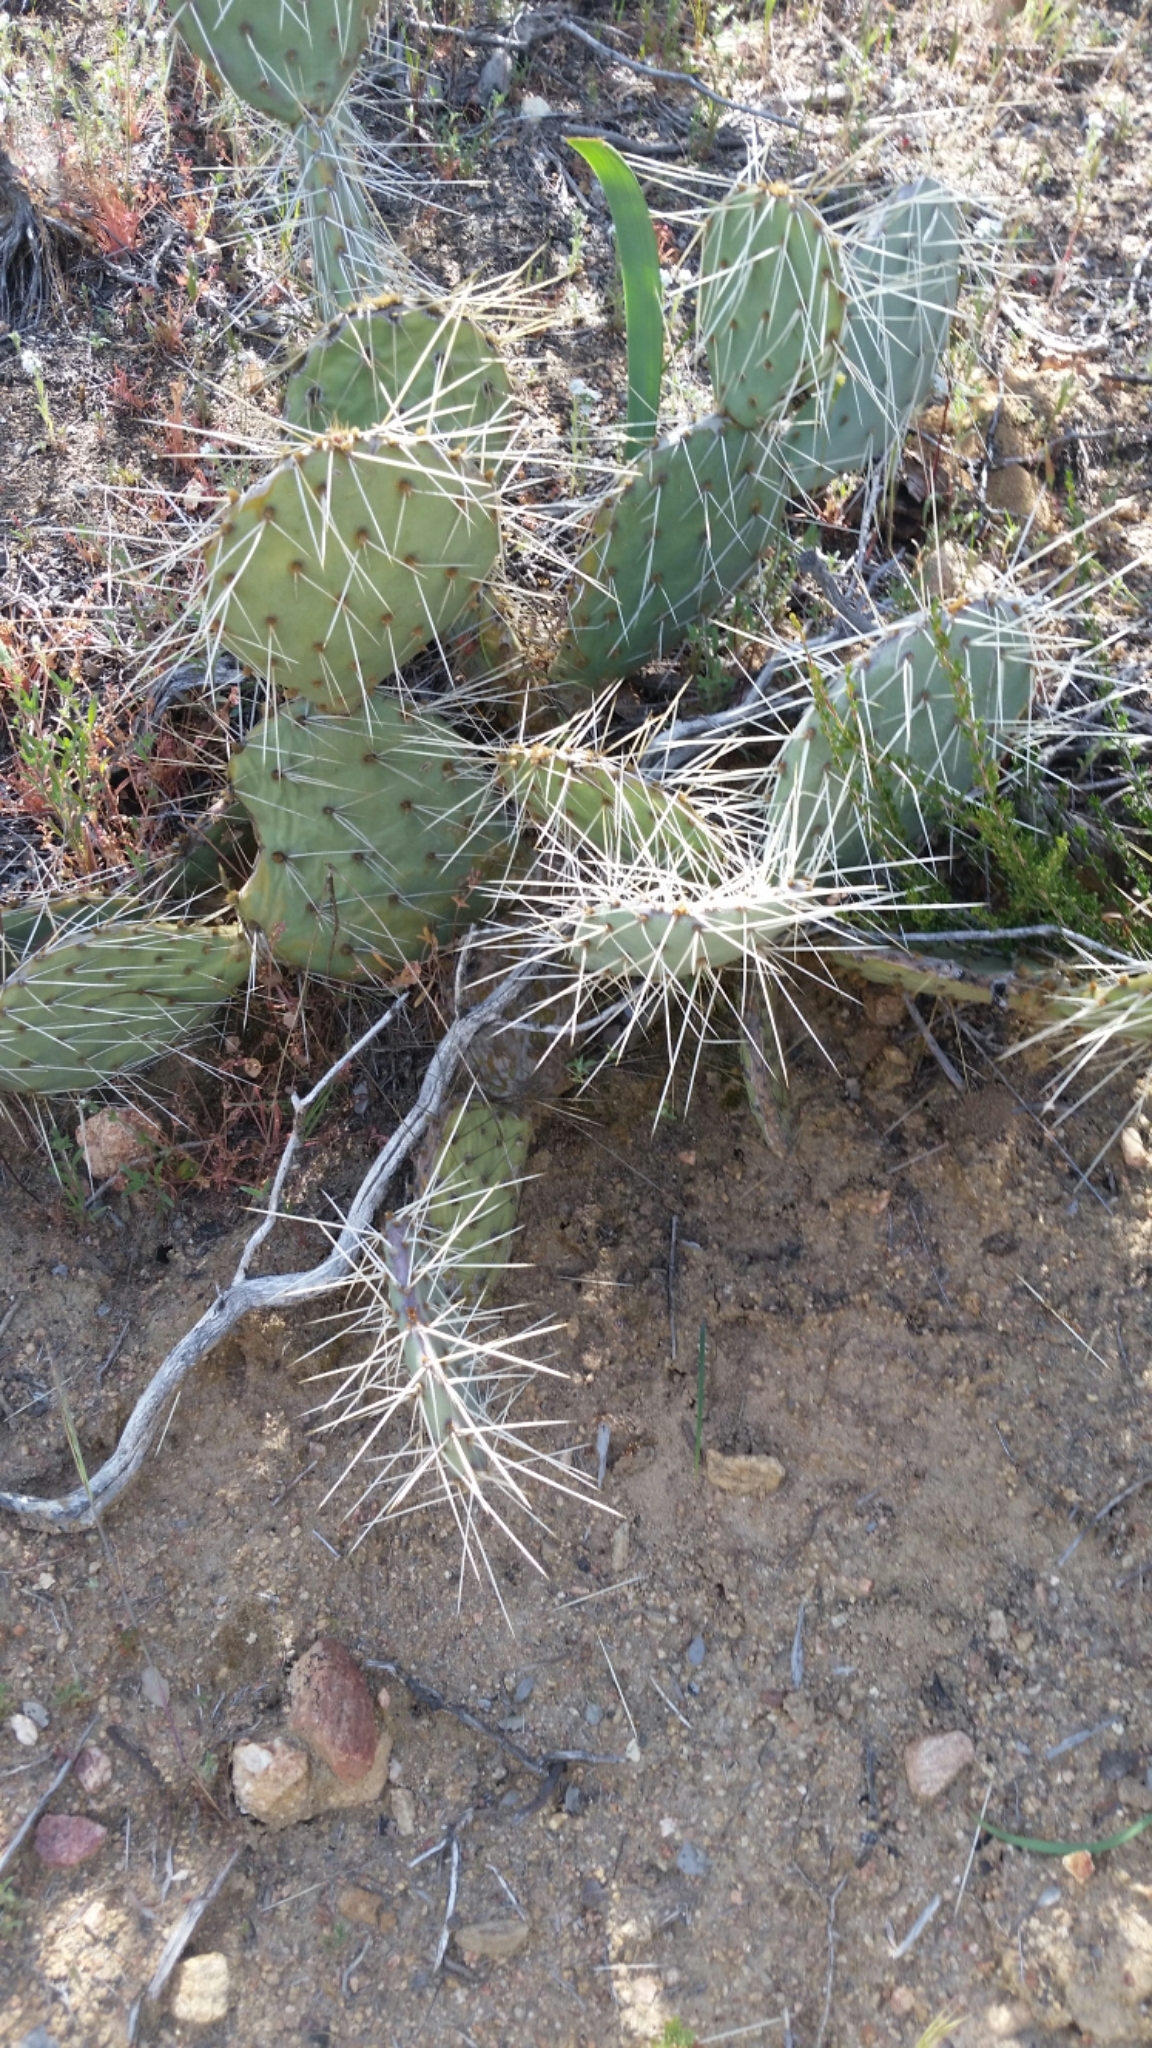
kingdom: Plantae
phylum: Tracheophyta
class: Magnoliopsida
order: Caryophyllales
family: Cactaceae
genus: Opuntia
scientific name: Opuntia phaeacantha
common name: New mexico prickly-pear
